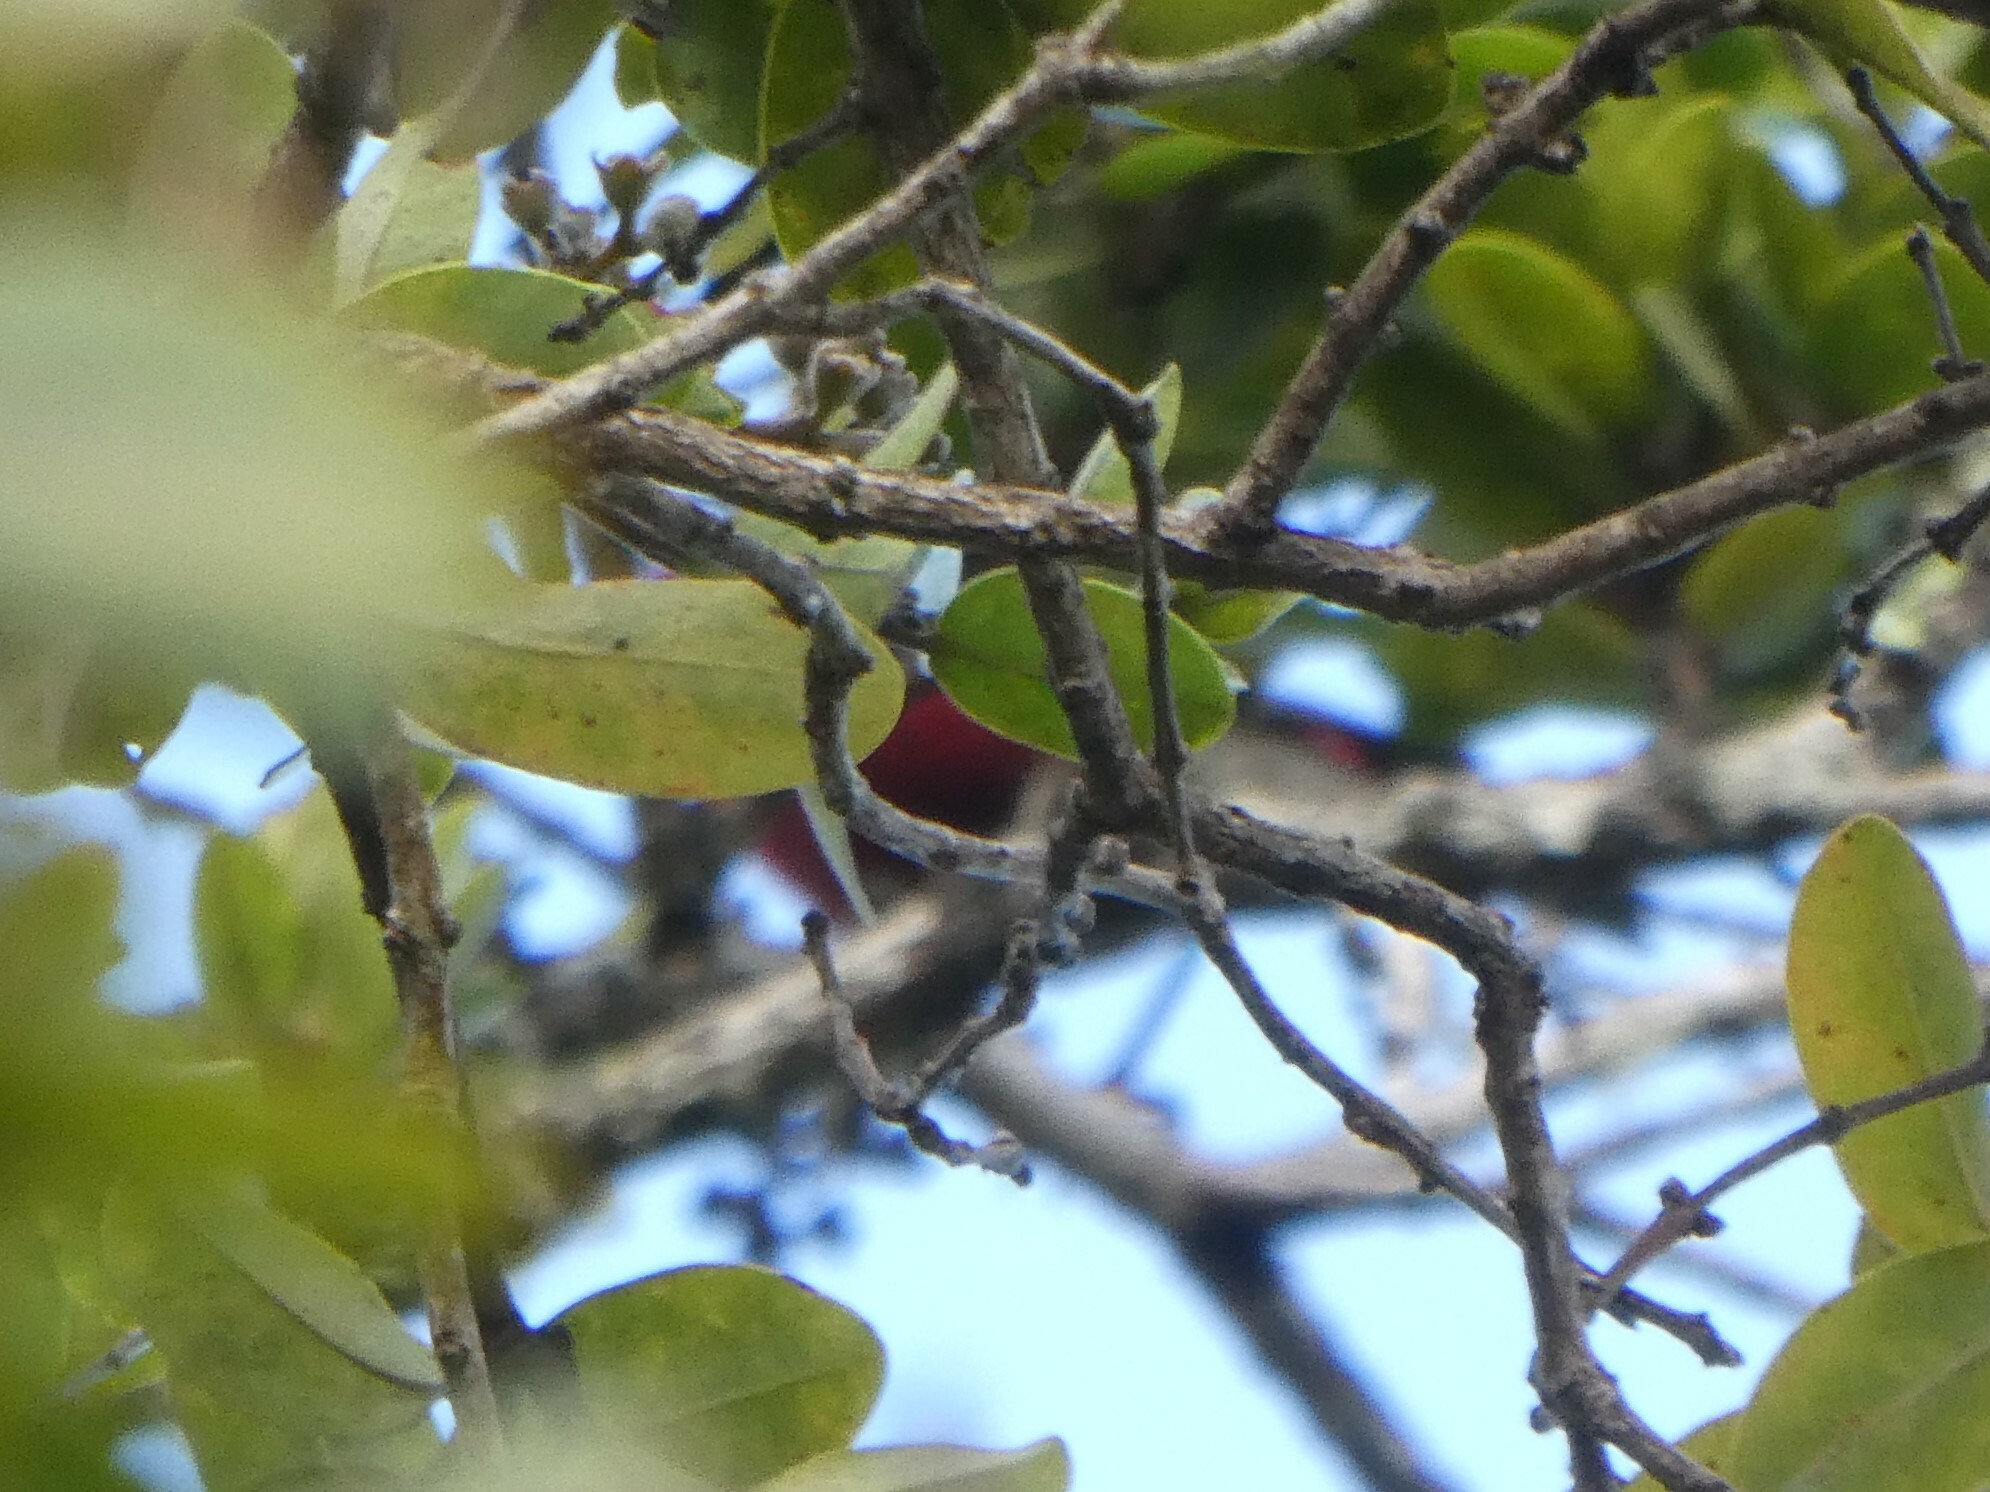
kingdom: Animalia
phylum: Chordata
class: Aves
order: Passeriformes
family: Fringillidae
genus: Himatione
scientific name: Himatione sanguinea
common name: Apapane
